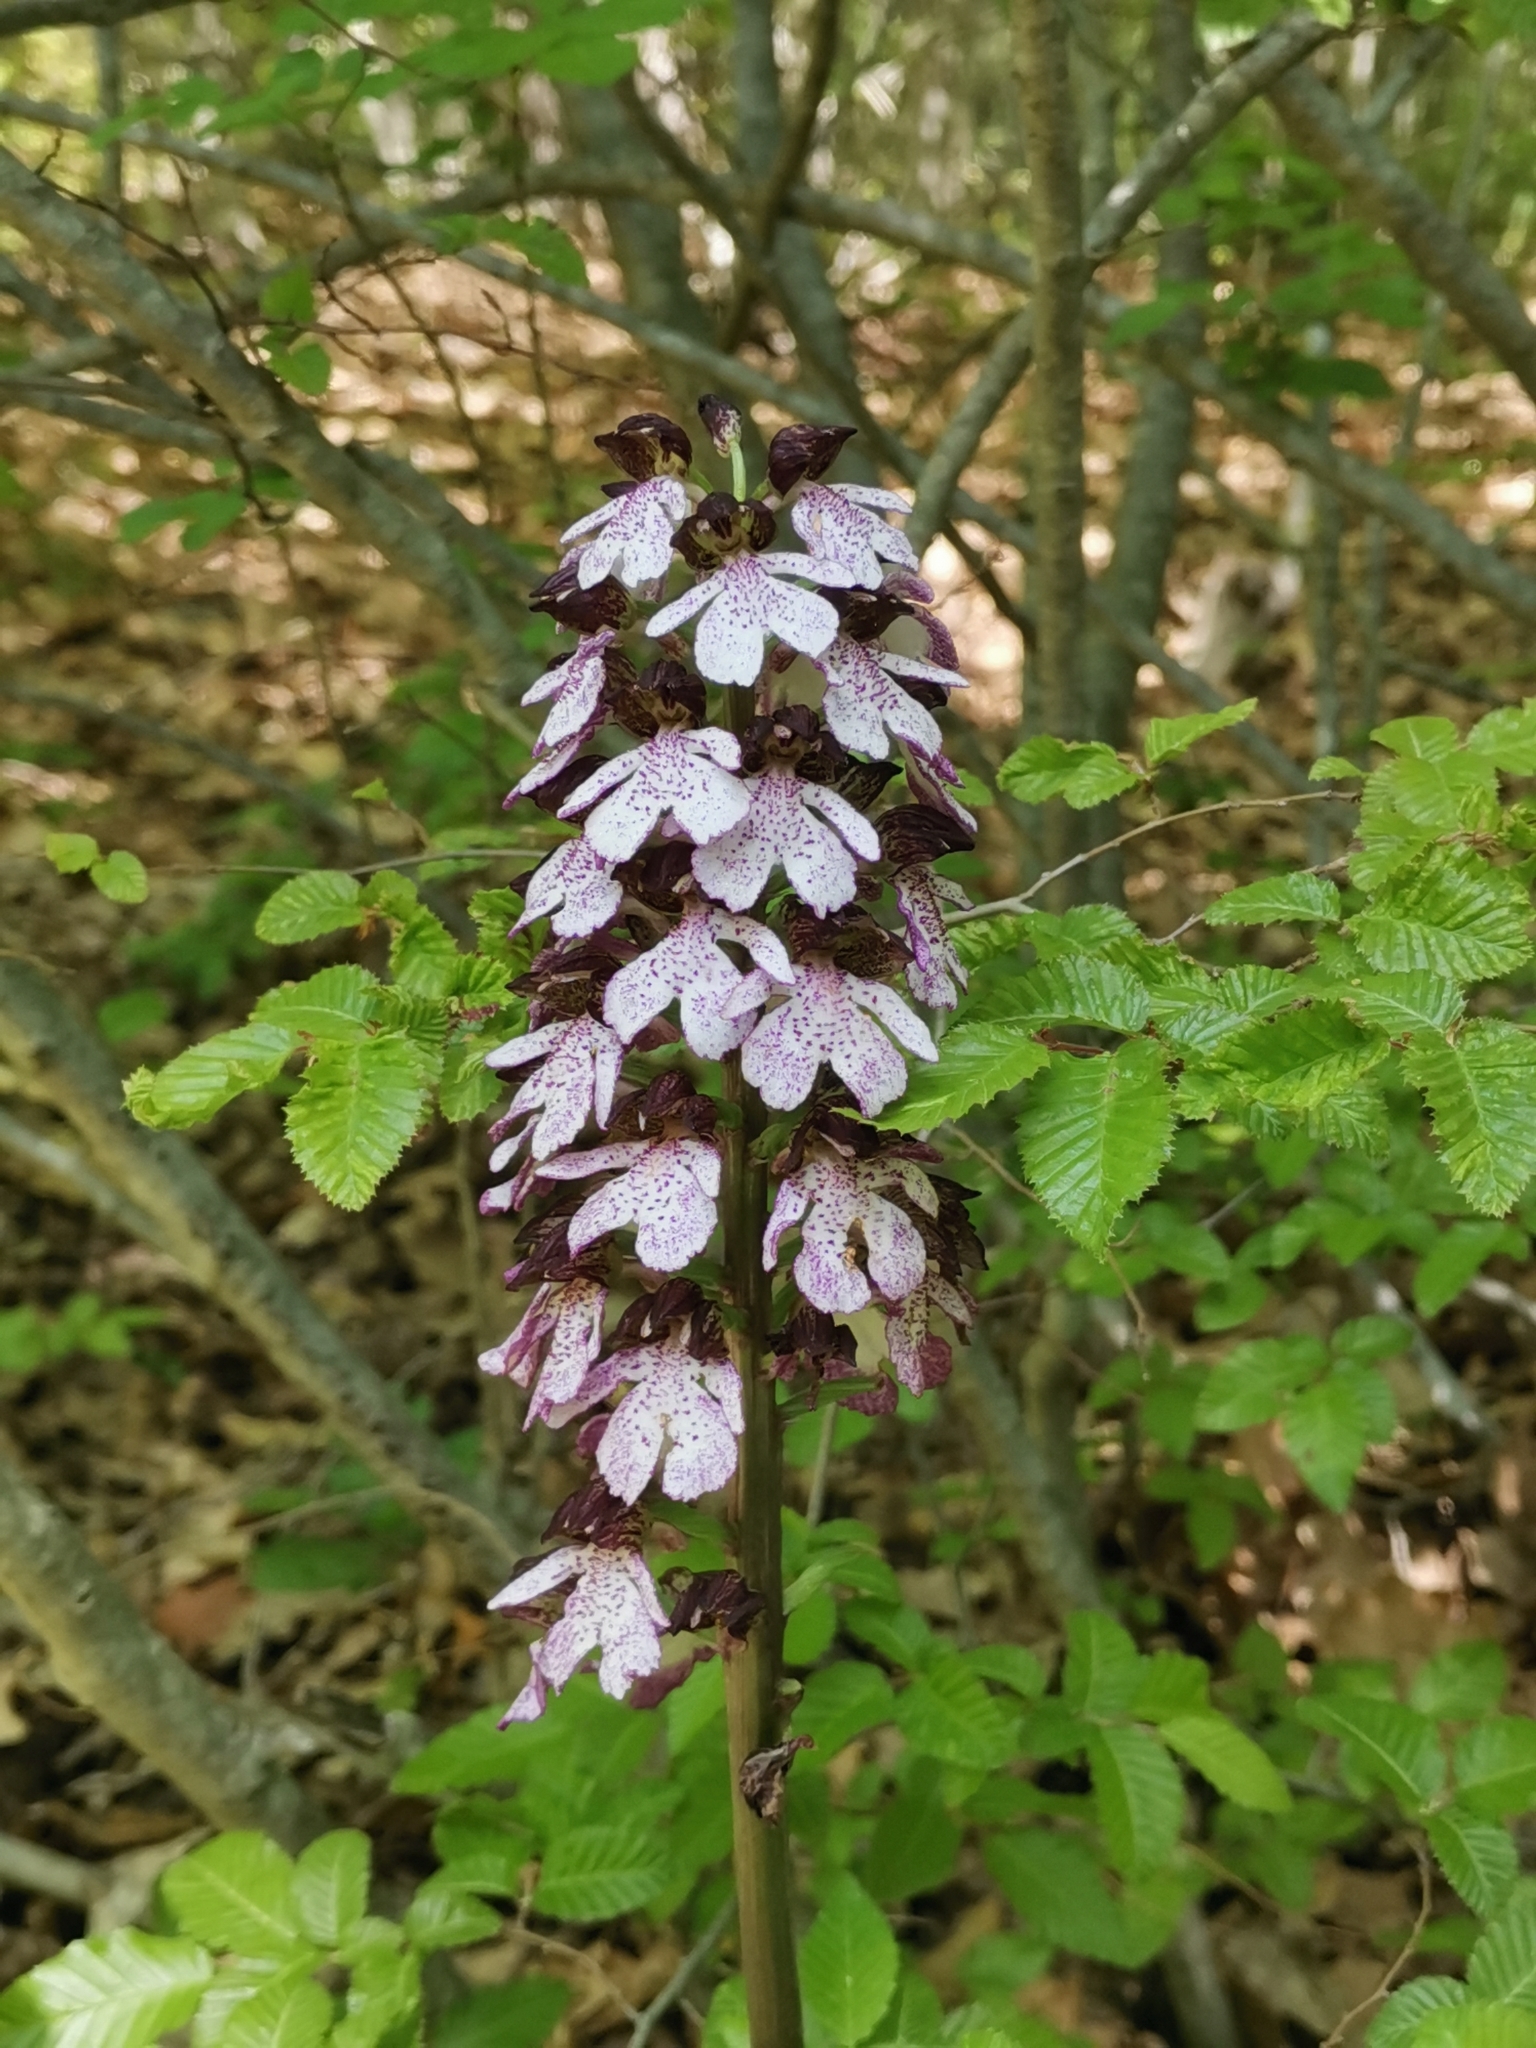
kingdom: Plantae
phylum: Tracheophyta
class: Liliopsida
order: Asparagales
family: Orchidaceae
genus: Orchis
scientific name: Orchis purpurea
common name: Lady orchid
